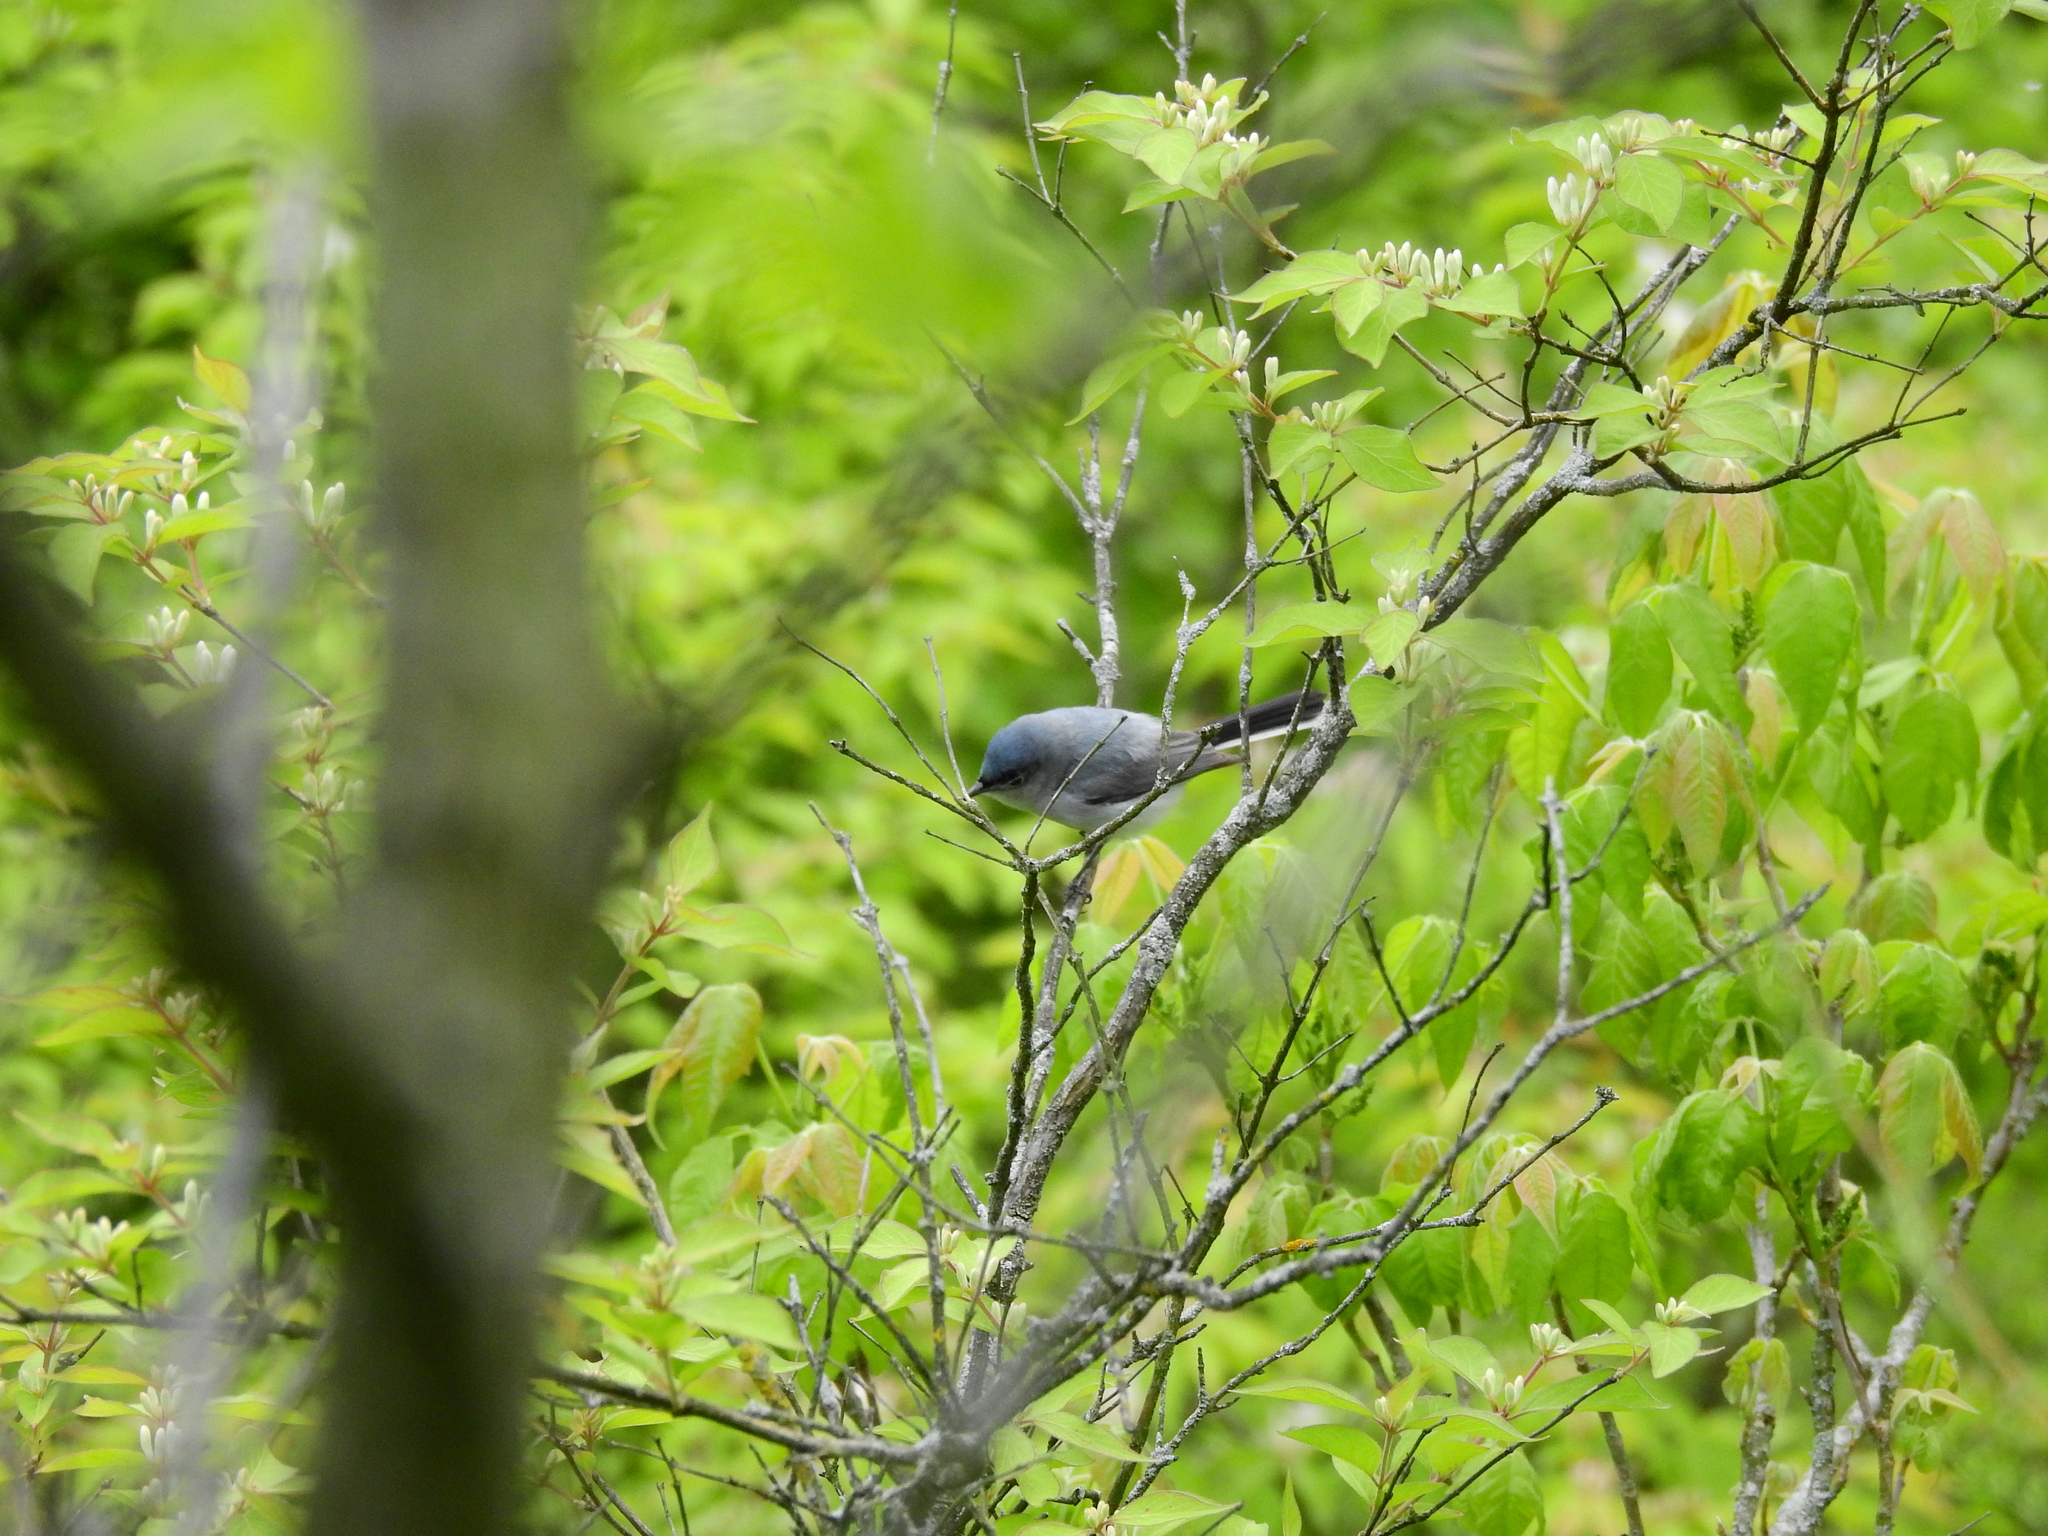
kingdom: Animalia
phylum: Chordata
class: Aves
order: Passeriformes
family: Polioptilidae
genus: Polioptila
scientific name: Polioptila caerulea
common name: Blue-gray gnatcatcher
